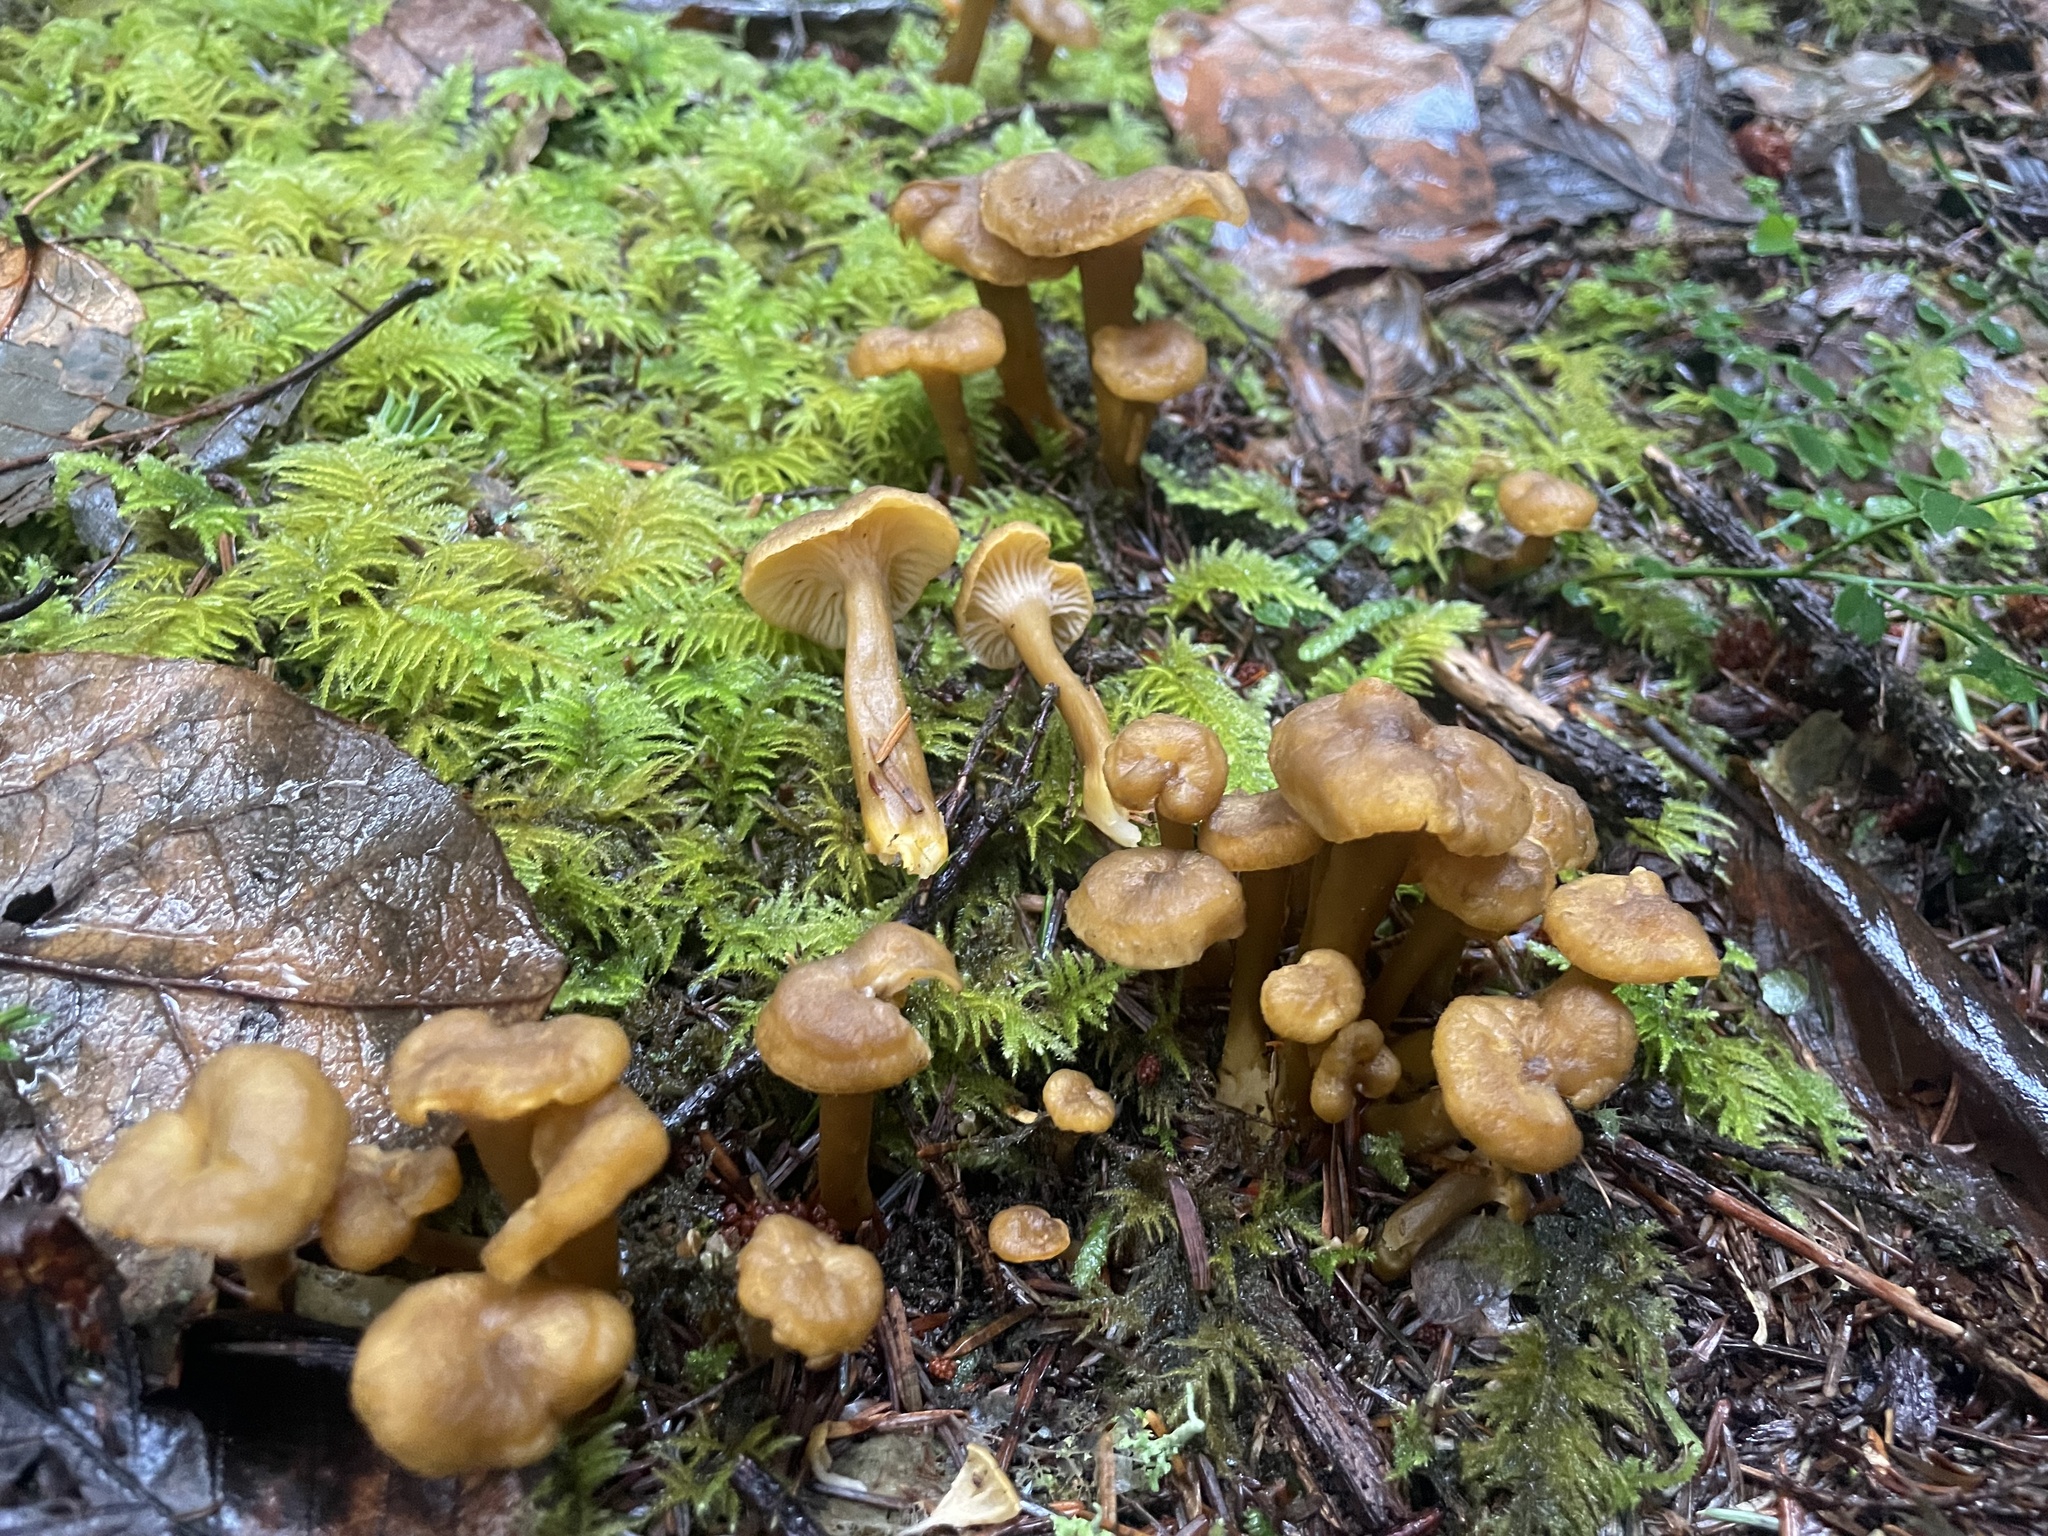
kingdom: Fungi
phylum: Basidiomycota
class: Agaricomycetes
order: Cantharellales
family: Hydnaceae
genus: Craterellus
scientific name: Craterellus tubaeformis
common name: Yellowfoot
